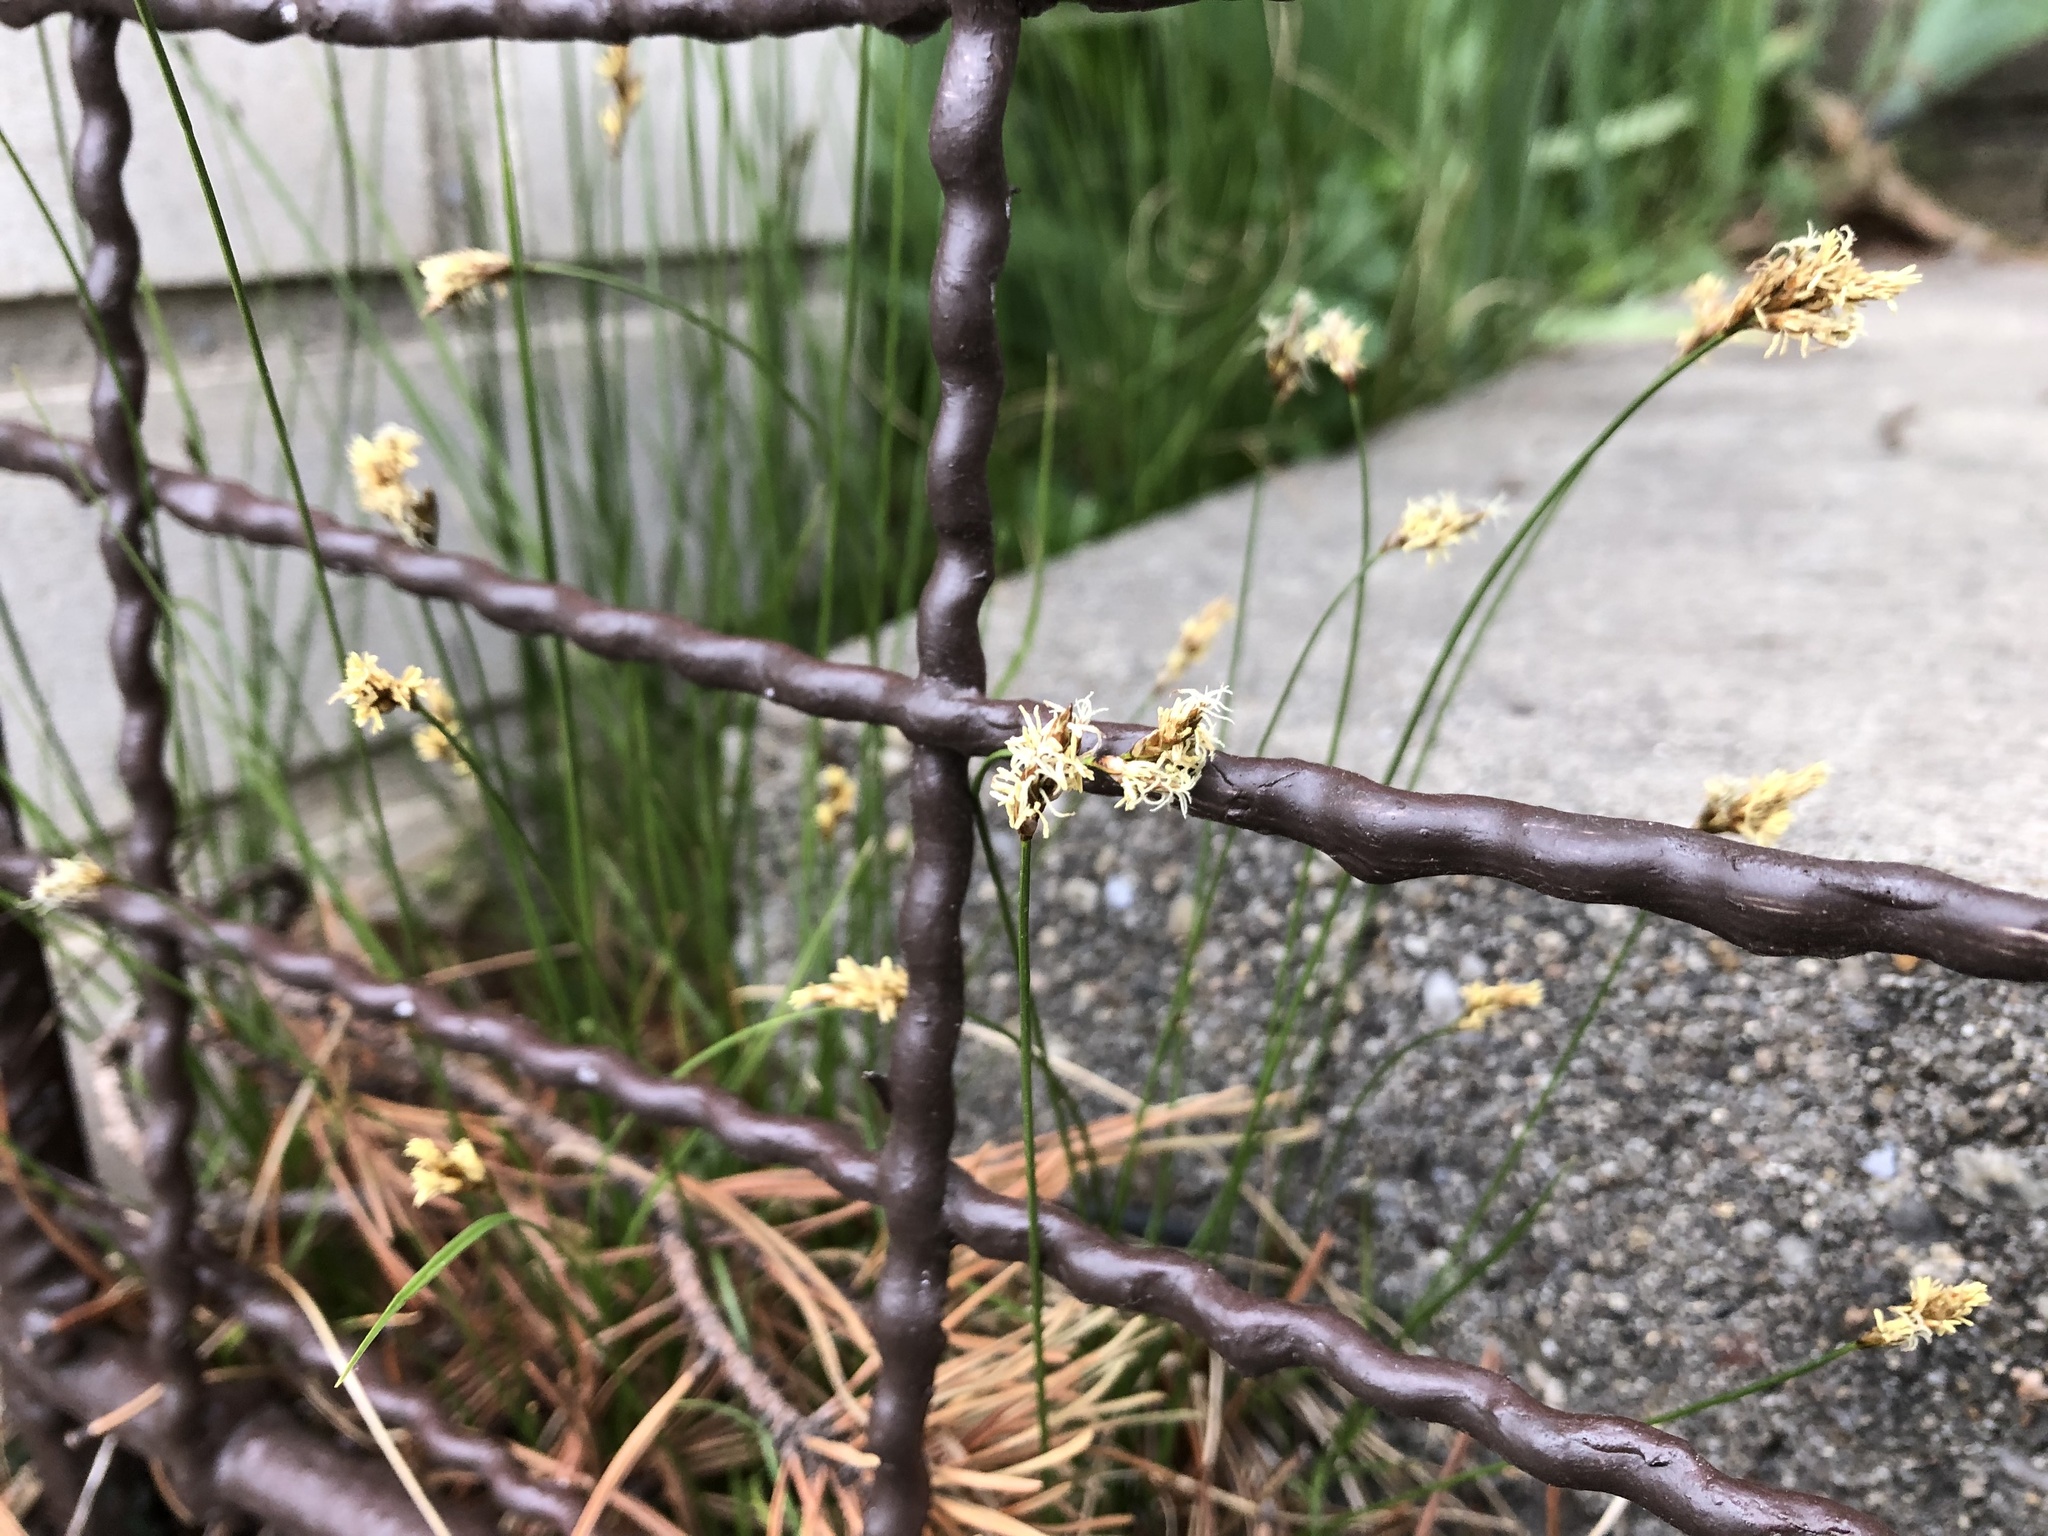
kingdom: Plantae
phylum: Tracheophyta
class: Liliopsida
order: Poales
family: Cyperaceae
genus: Carex
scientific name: Carex praecox
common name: Early sedge
